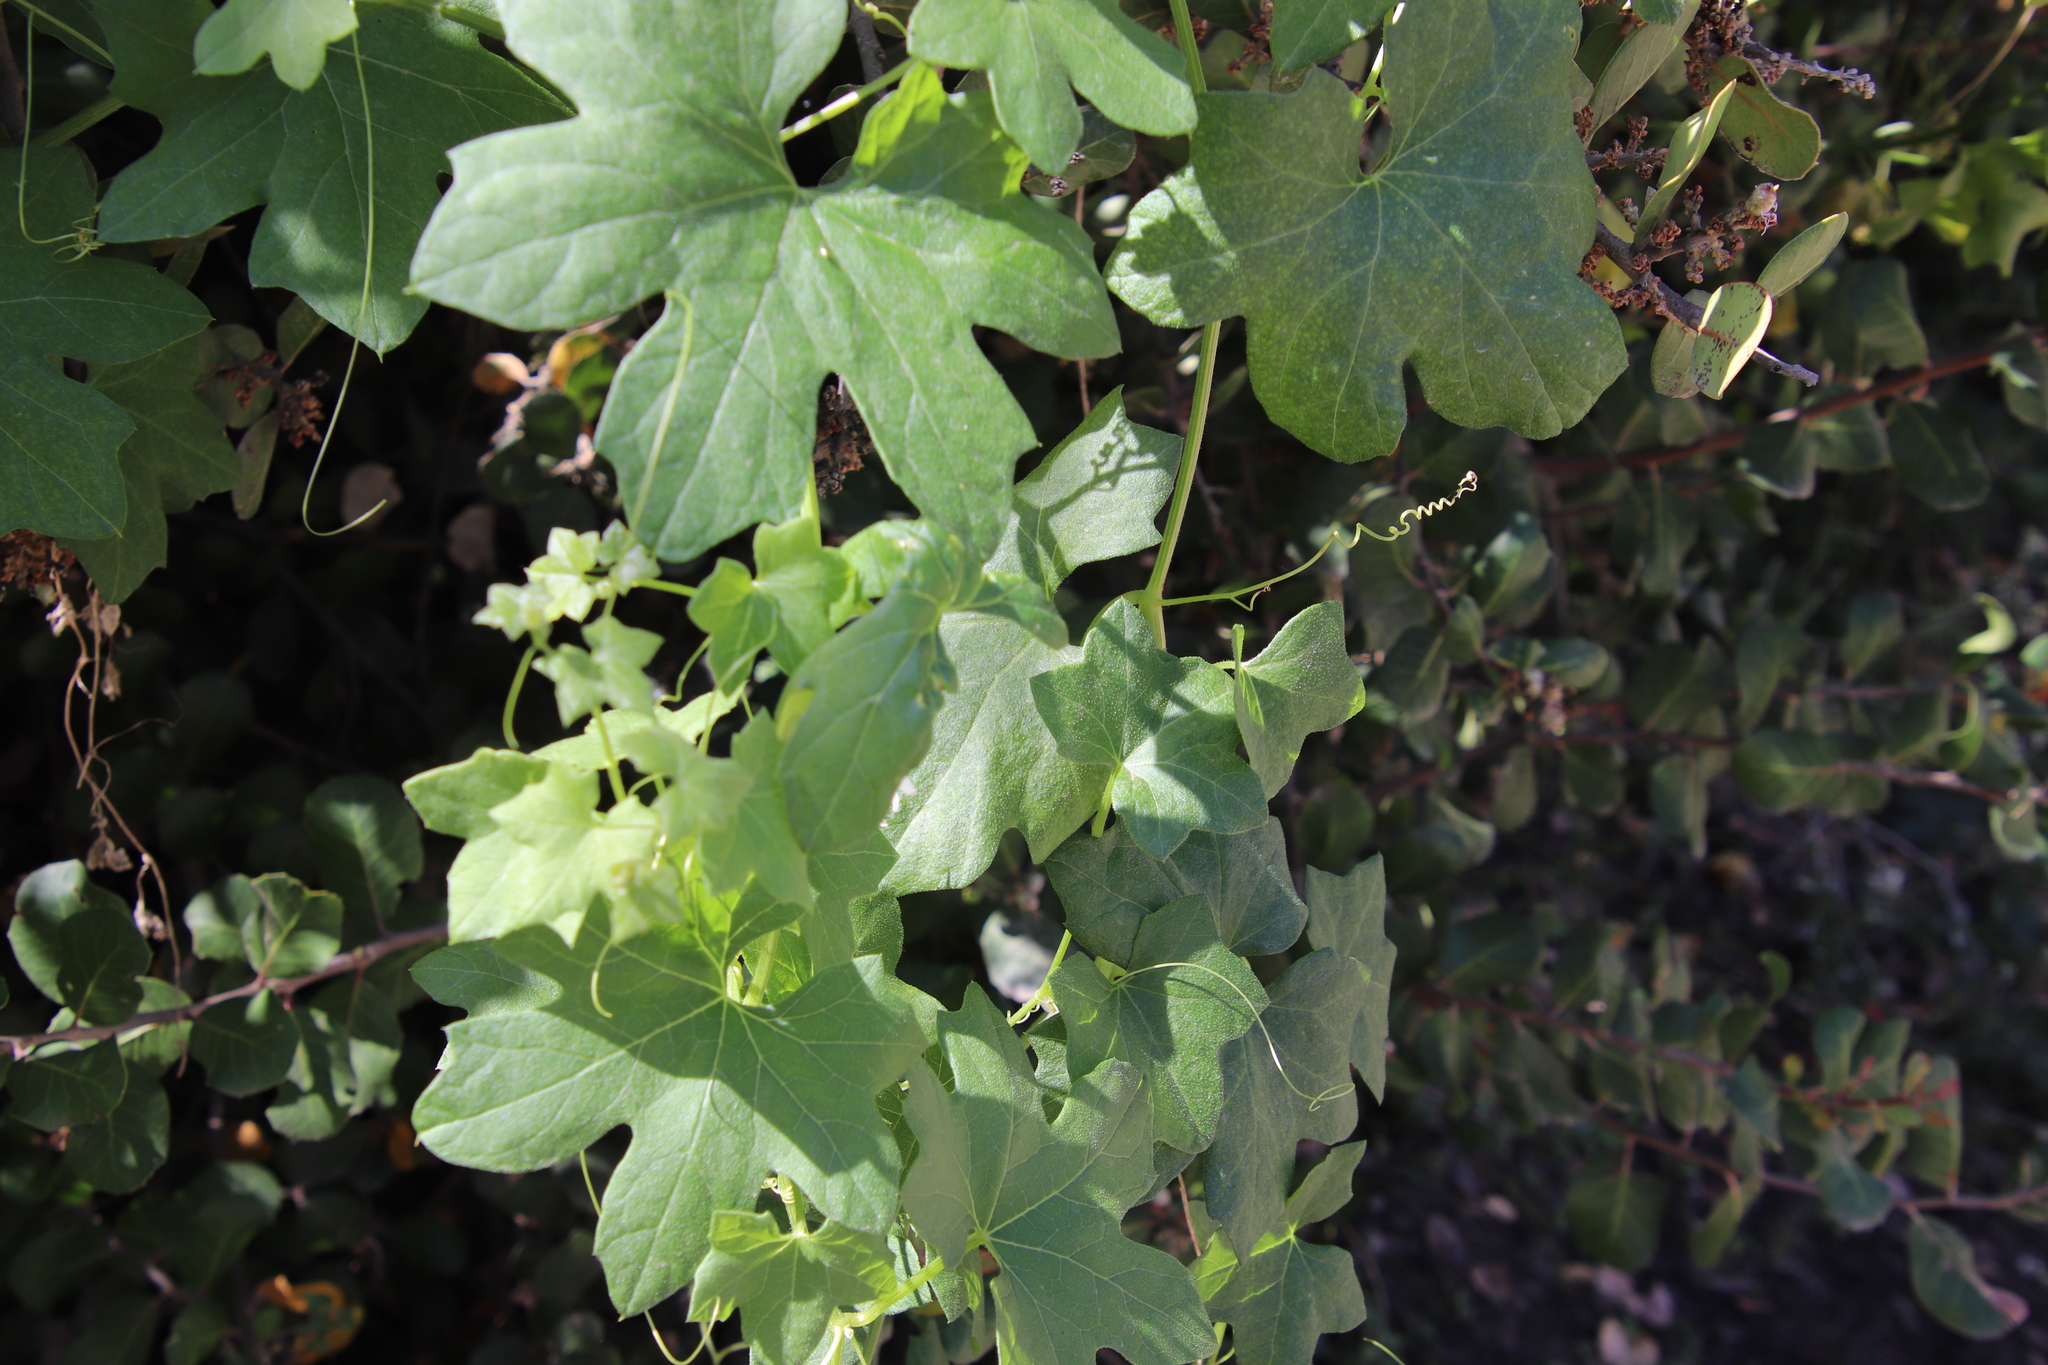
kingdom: Plantae
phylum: Tracheophyta
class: Magnoliopsida
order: Cucurbitales
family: Cucurbitaceae
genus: Marah
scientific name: Marah macrocarpa
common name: Cucamonga manroot
